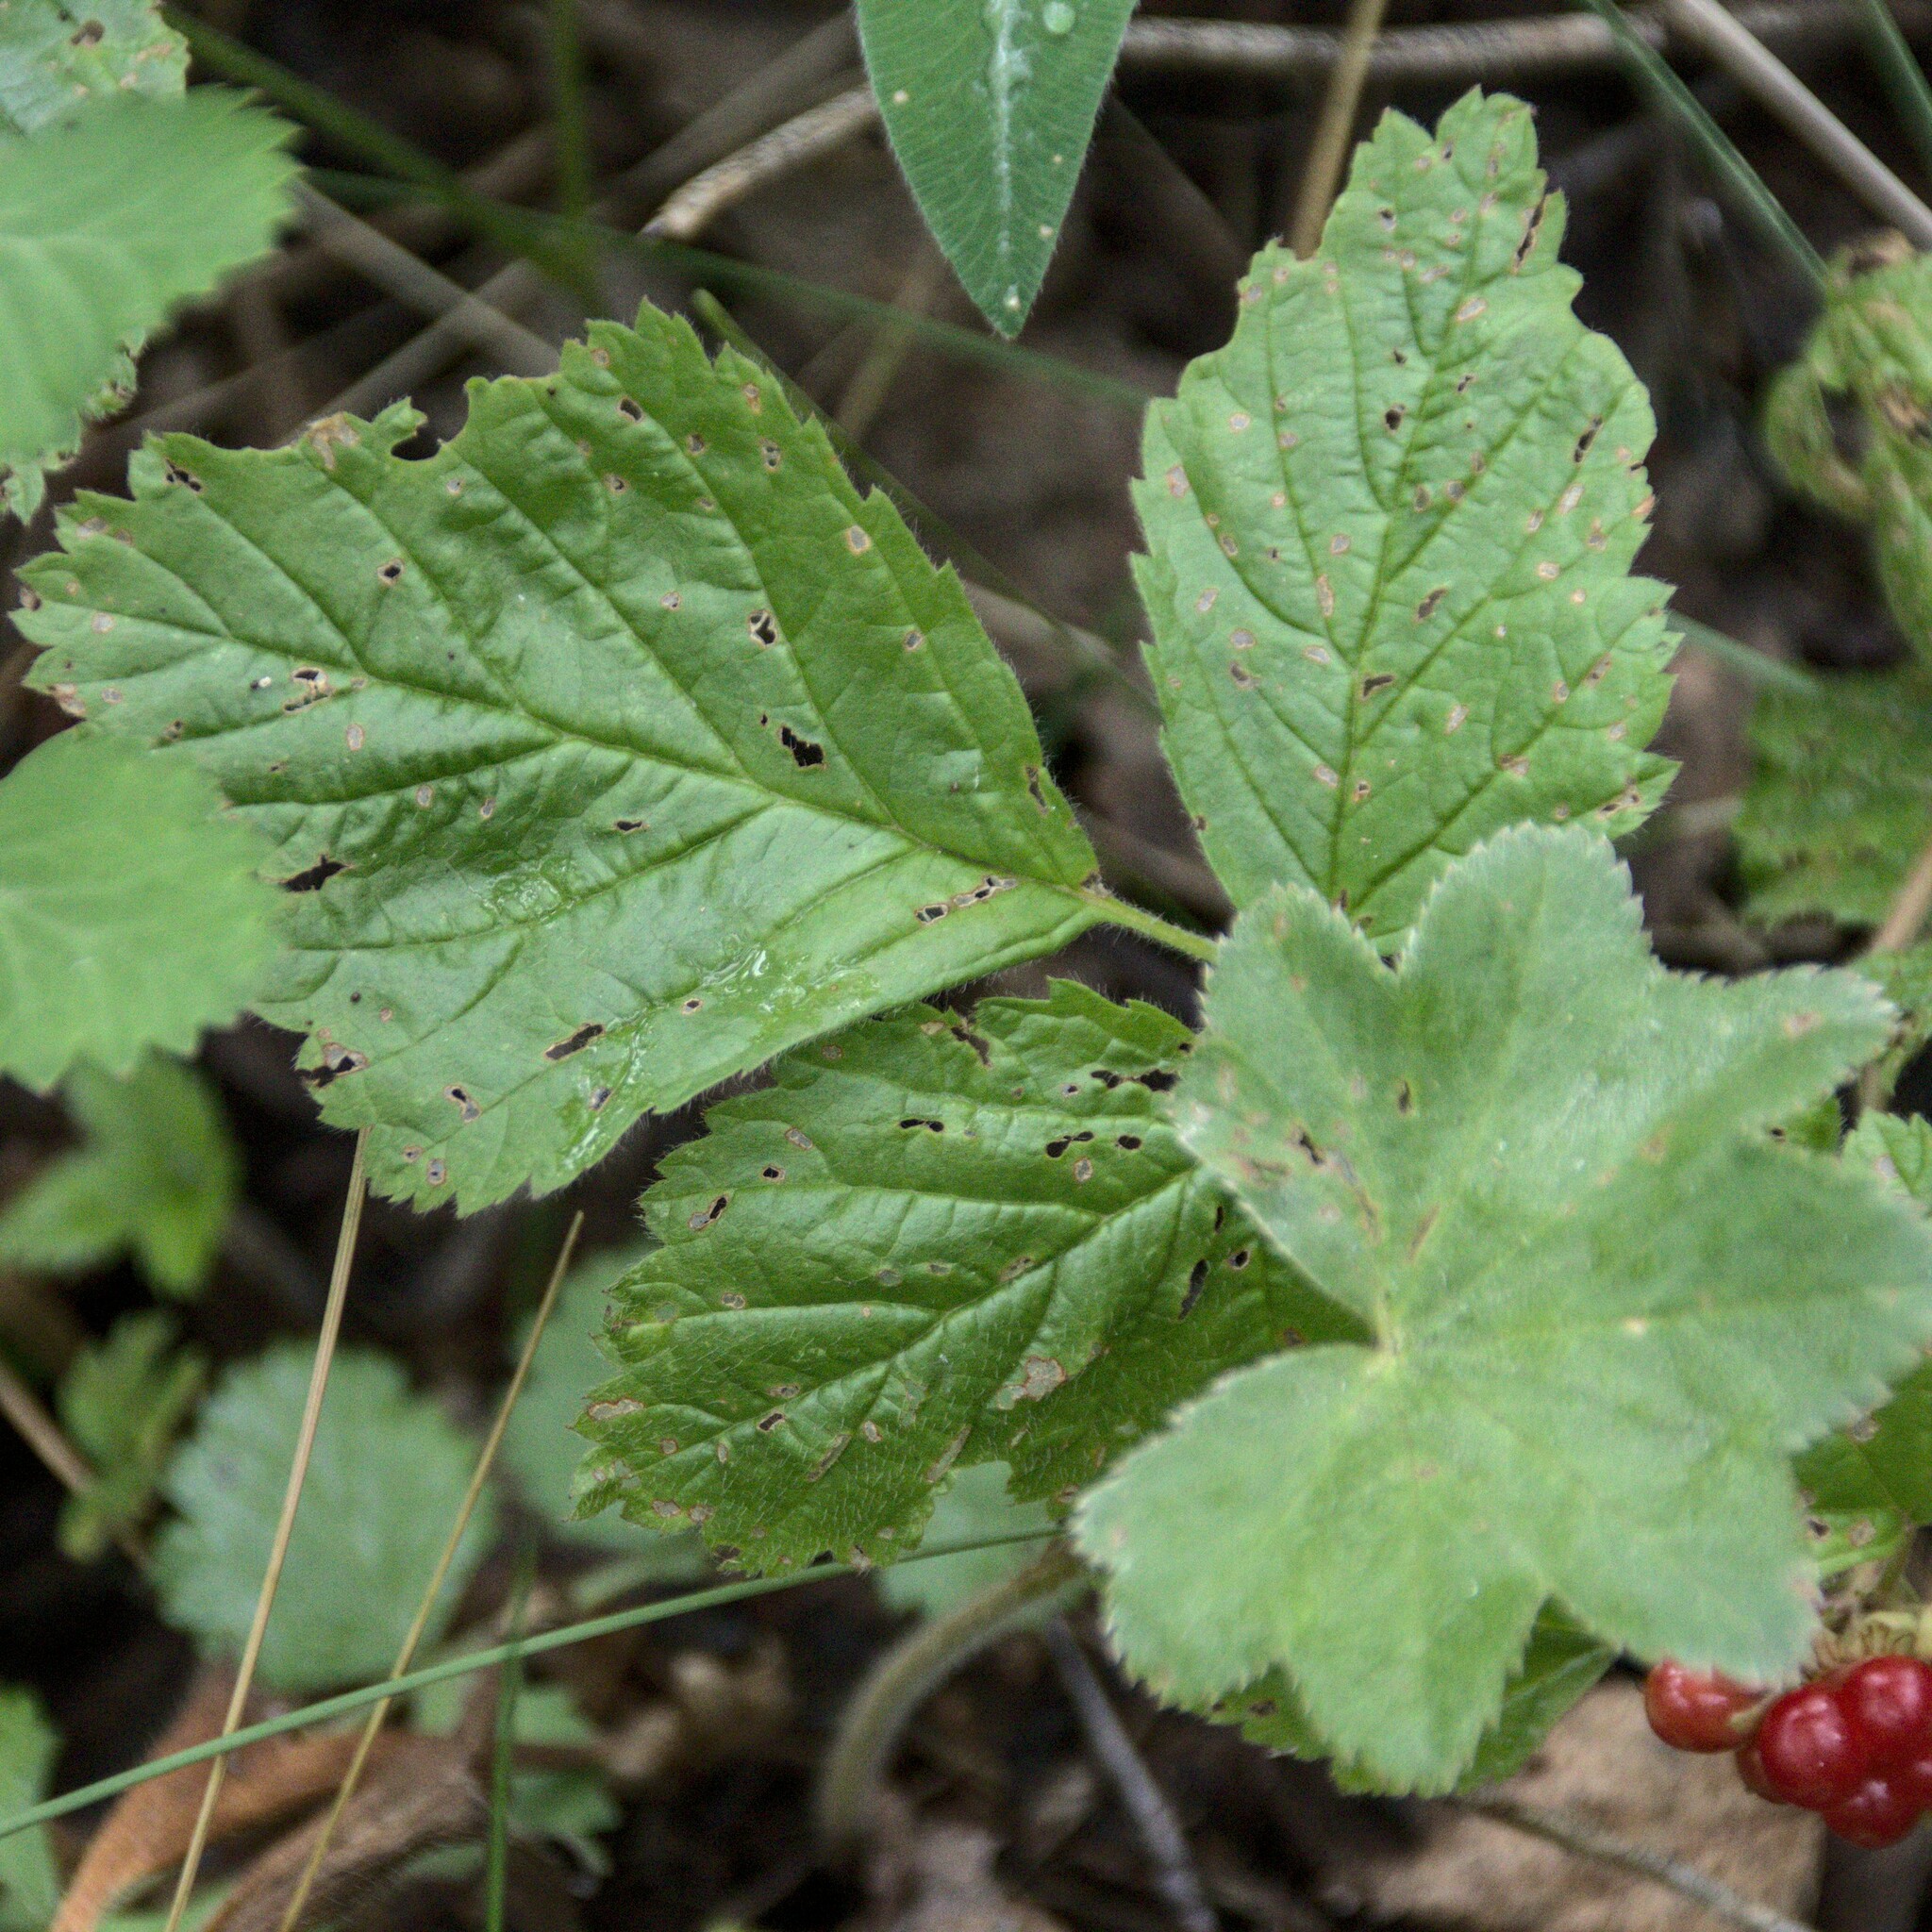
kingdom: Plantae
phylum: Tracheophyta
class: Magnoliopsida
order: Rosales
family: Rosaceae
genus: Rubus
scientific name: Rubus saxatilis
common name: Stone bramble
